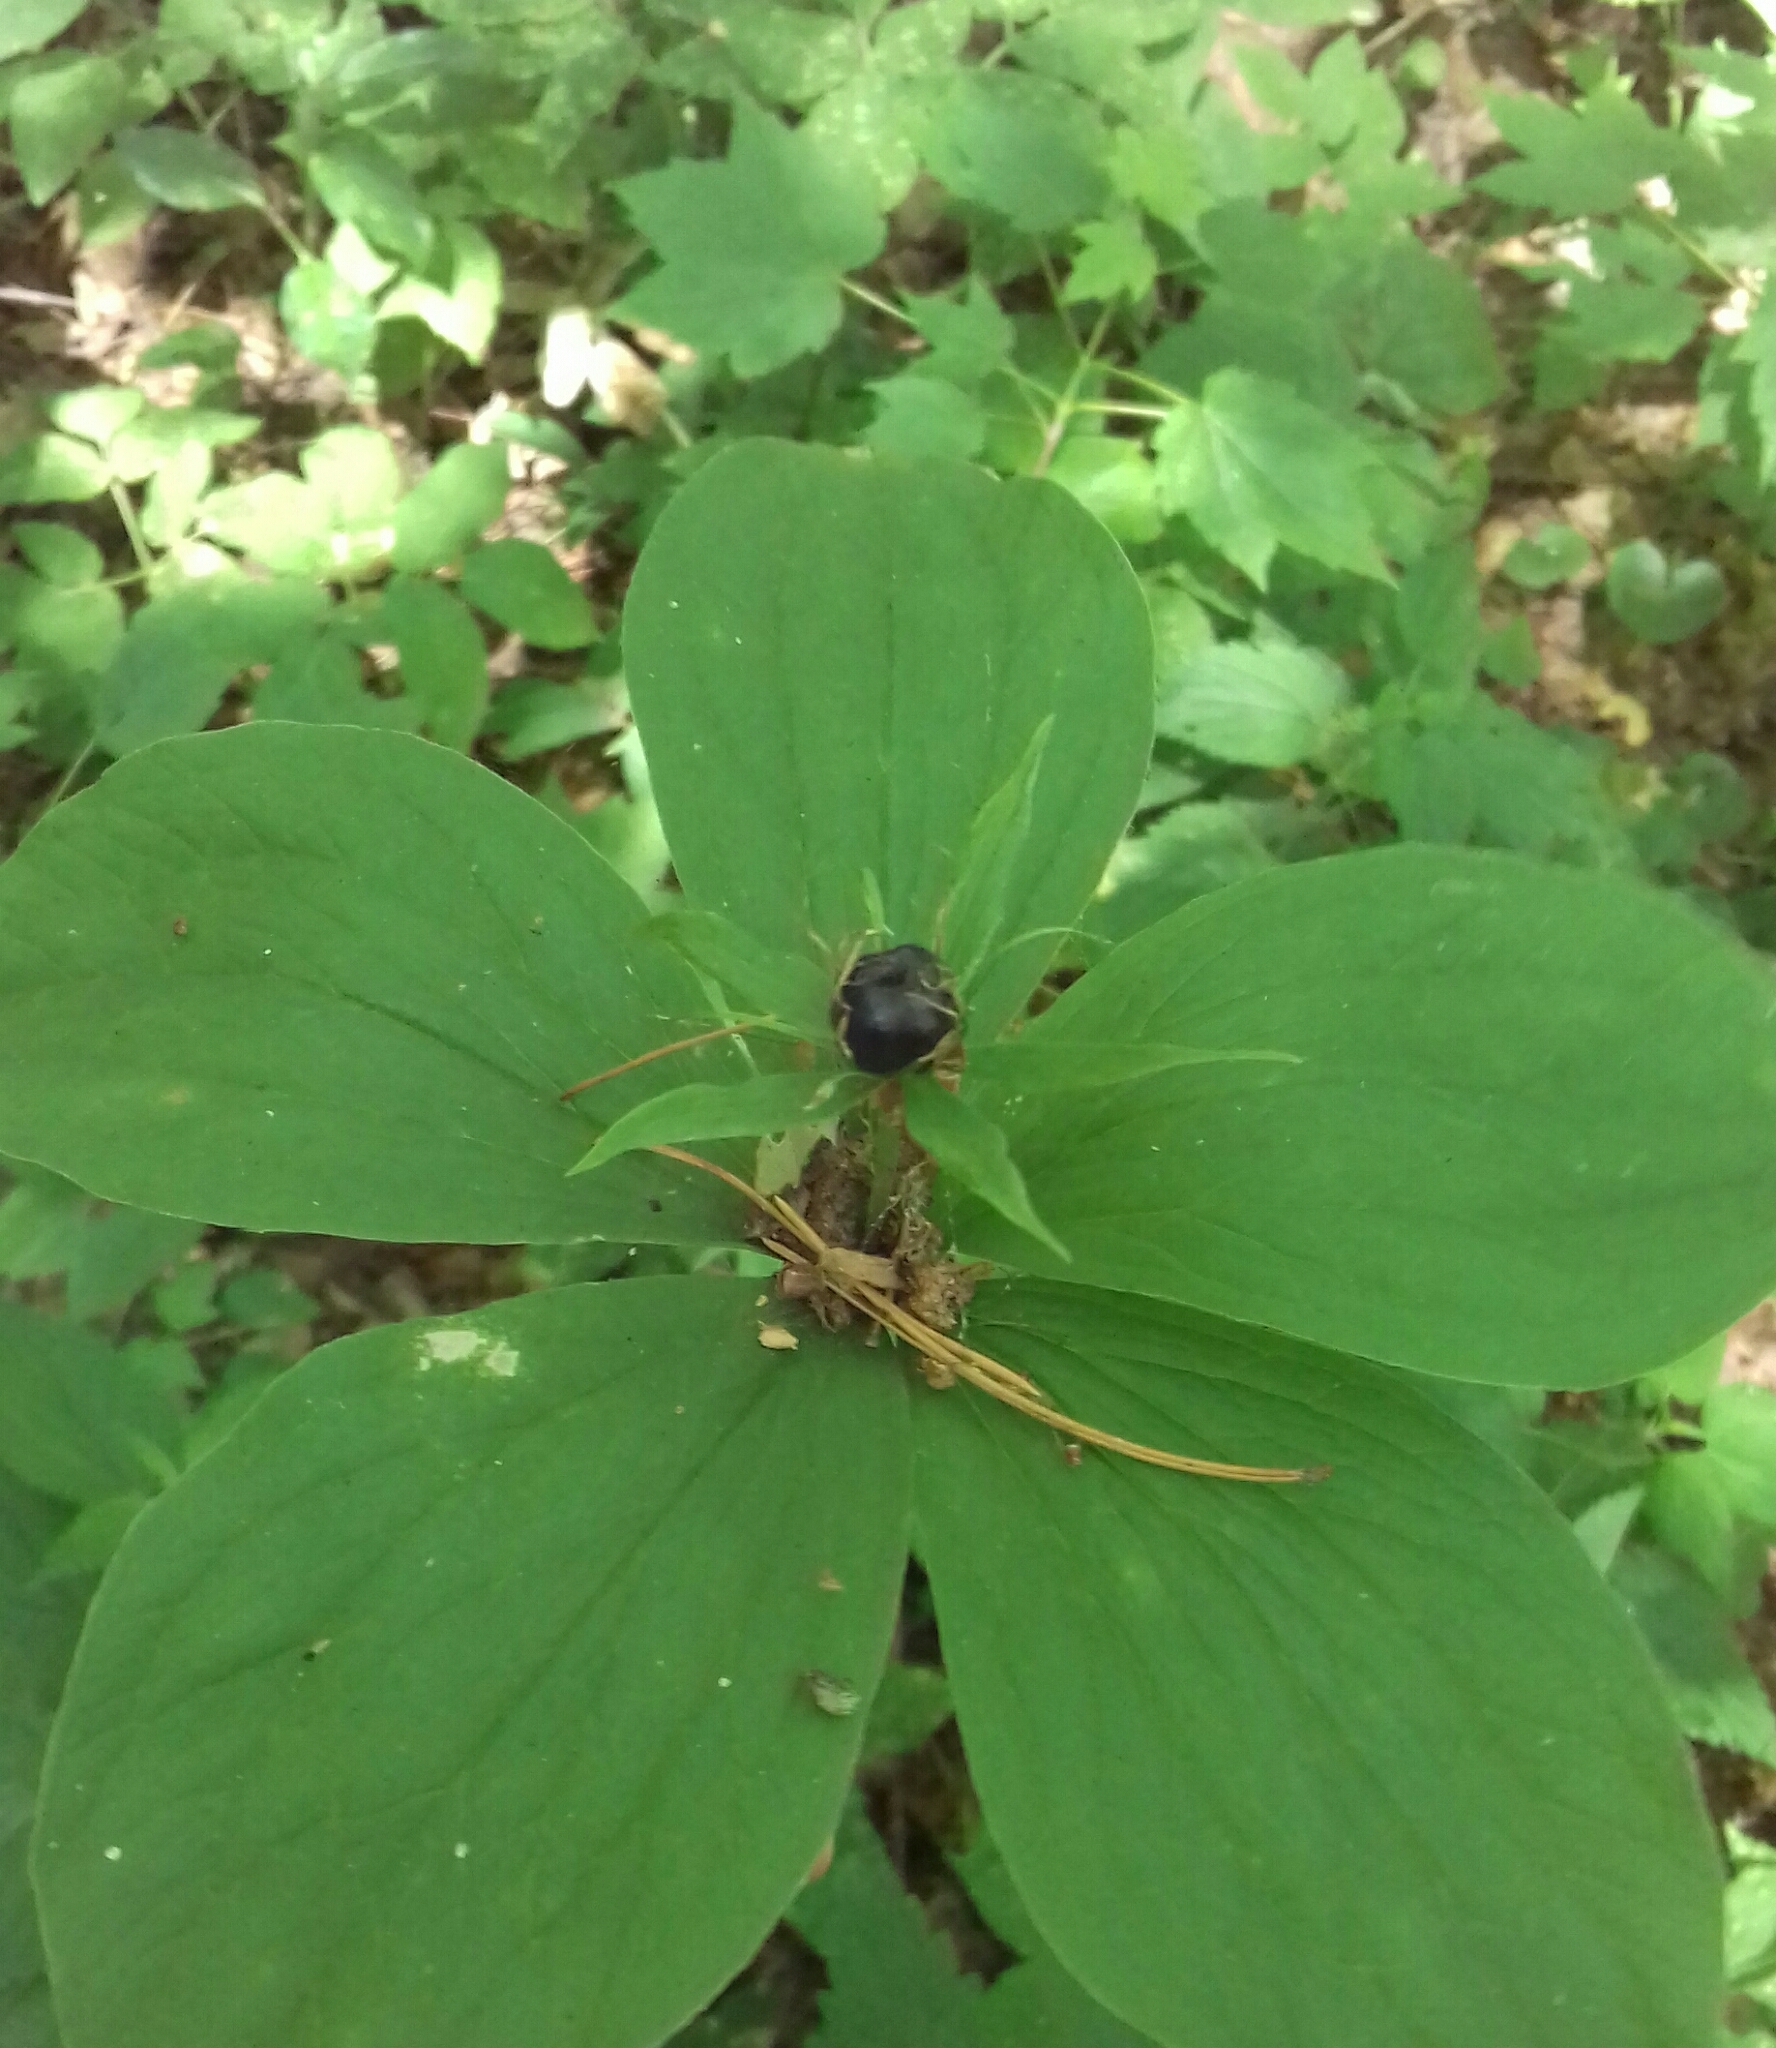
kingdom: Plantae
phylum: Tracheophyta
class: Liliopsida
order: Liliales
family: Melanthiaceae
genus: Paris
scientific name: Paris quadrifolia
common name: Herb-paris
